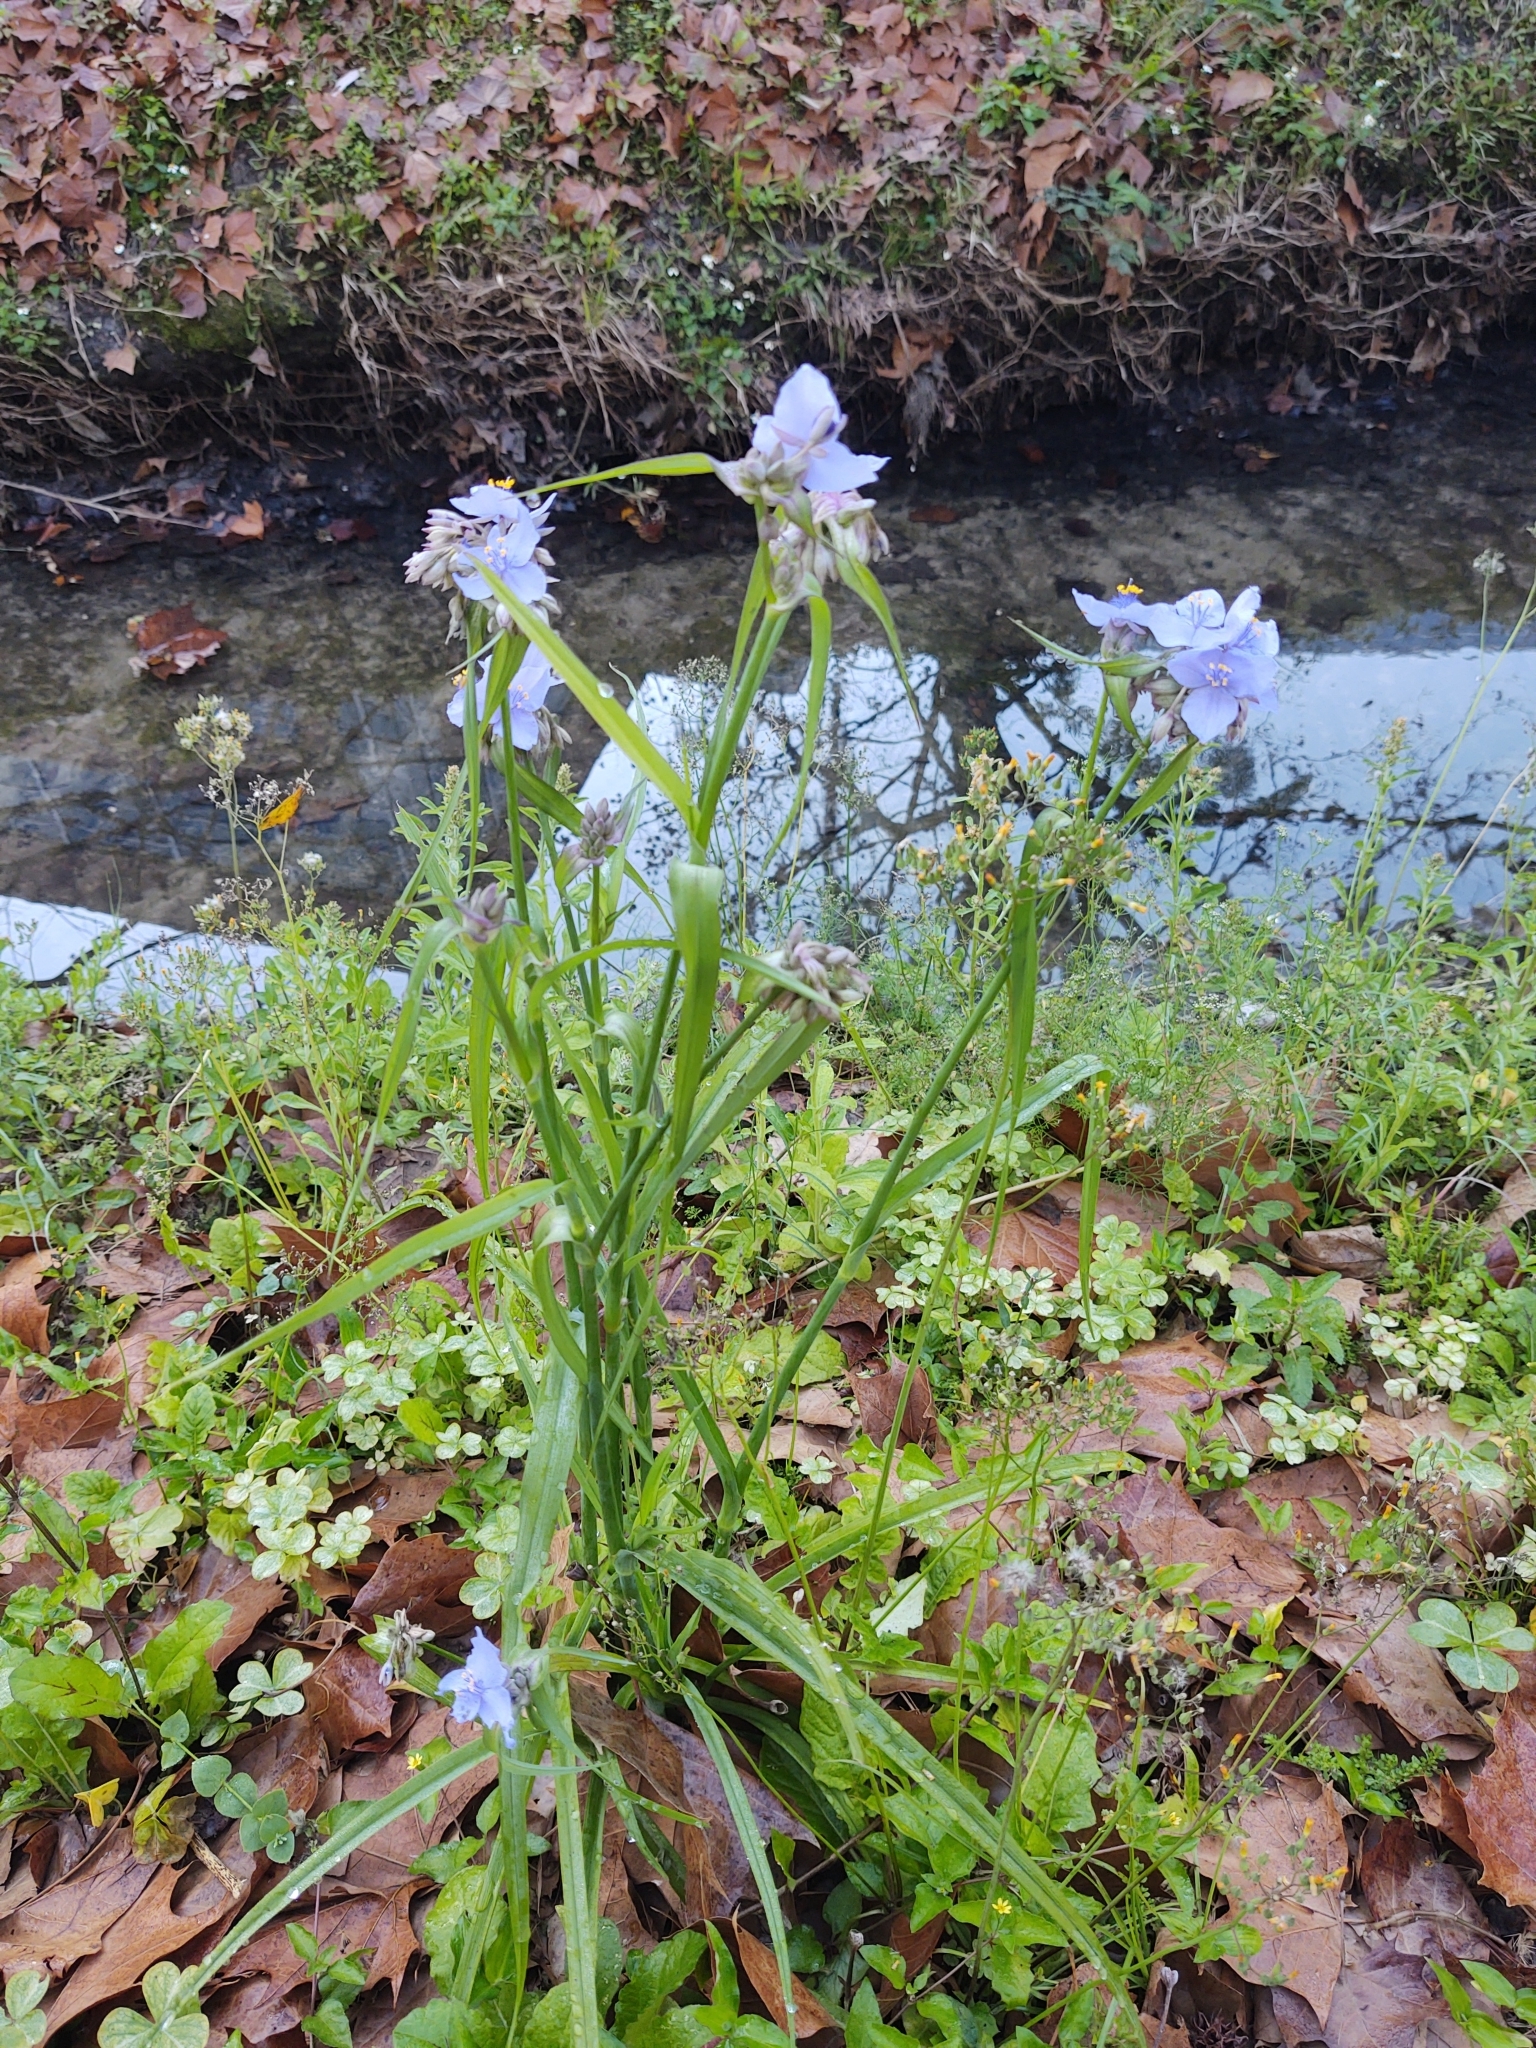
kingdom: Plantae
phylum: Tracheophyta
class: Liliopsida
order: Commelinales
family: Commelinaceae
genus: Tradescantia
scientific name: Tradescantia ohiensis
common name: Ohio spiderwort
